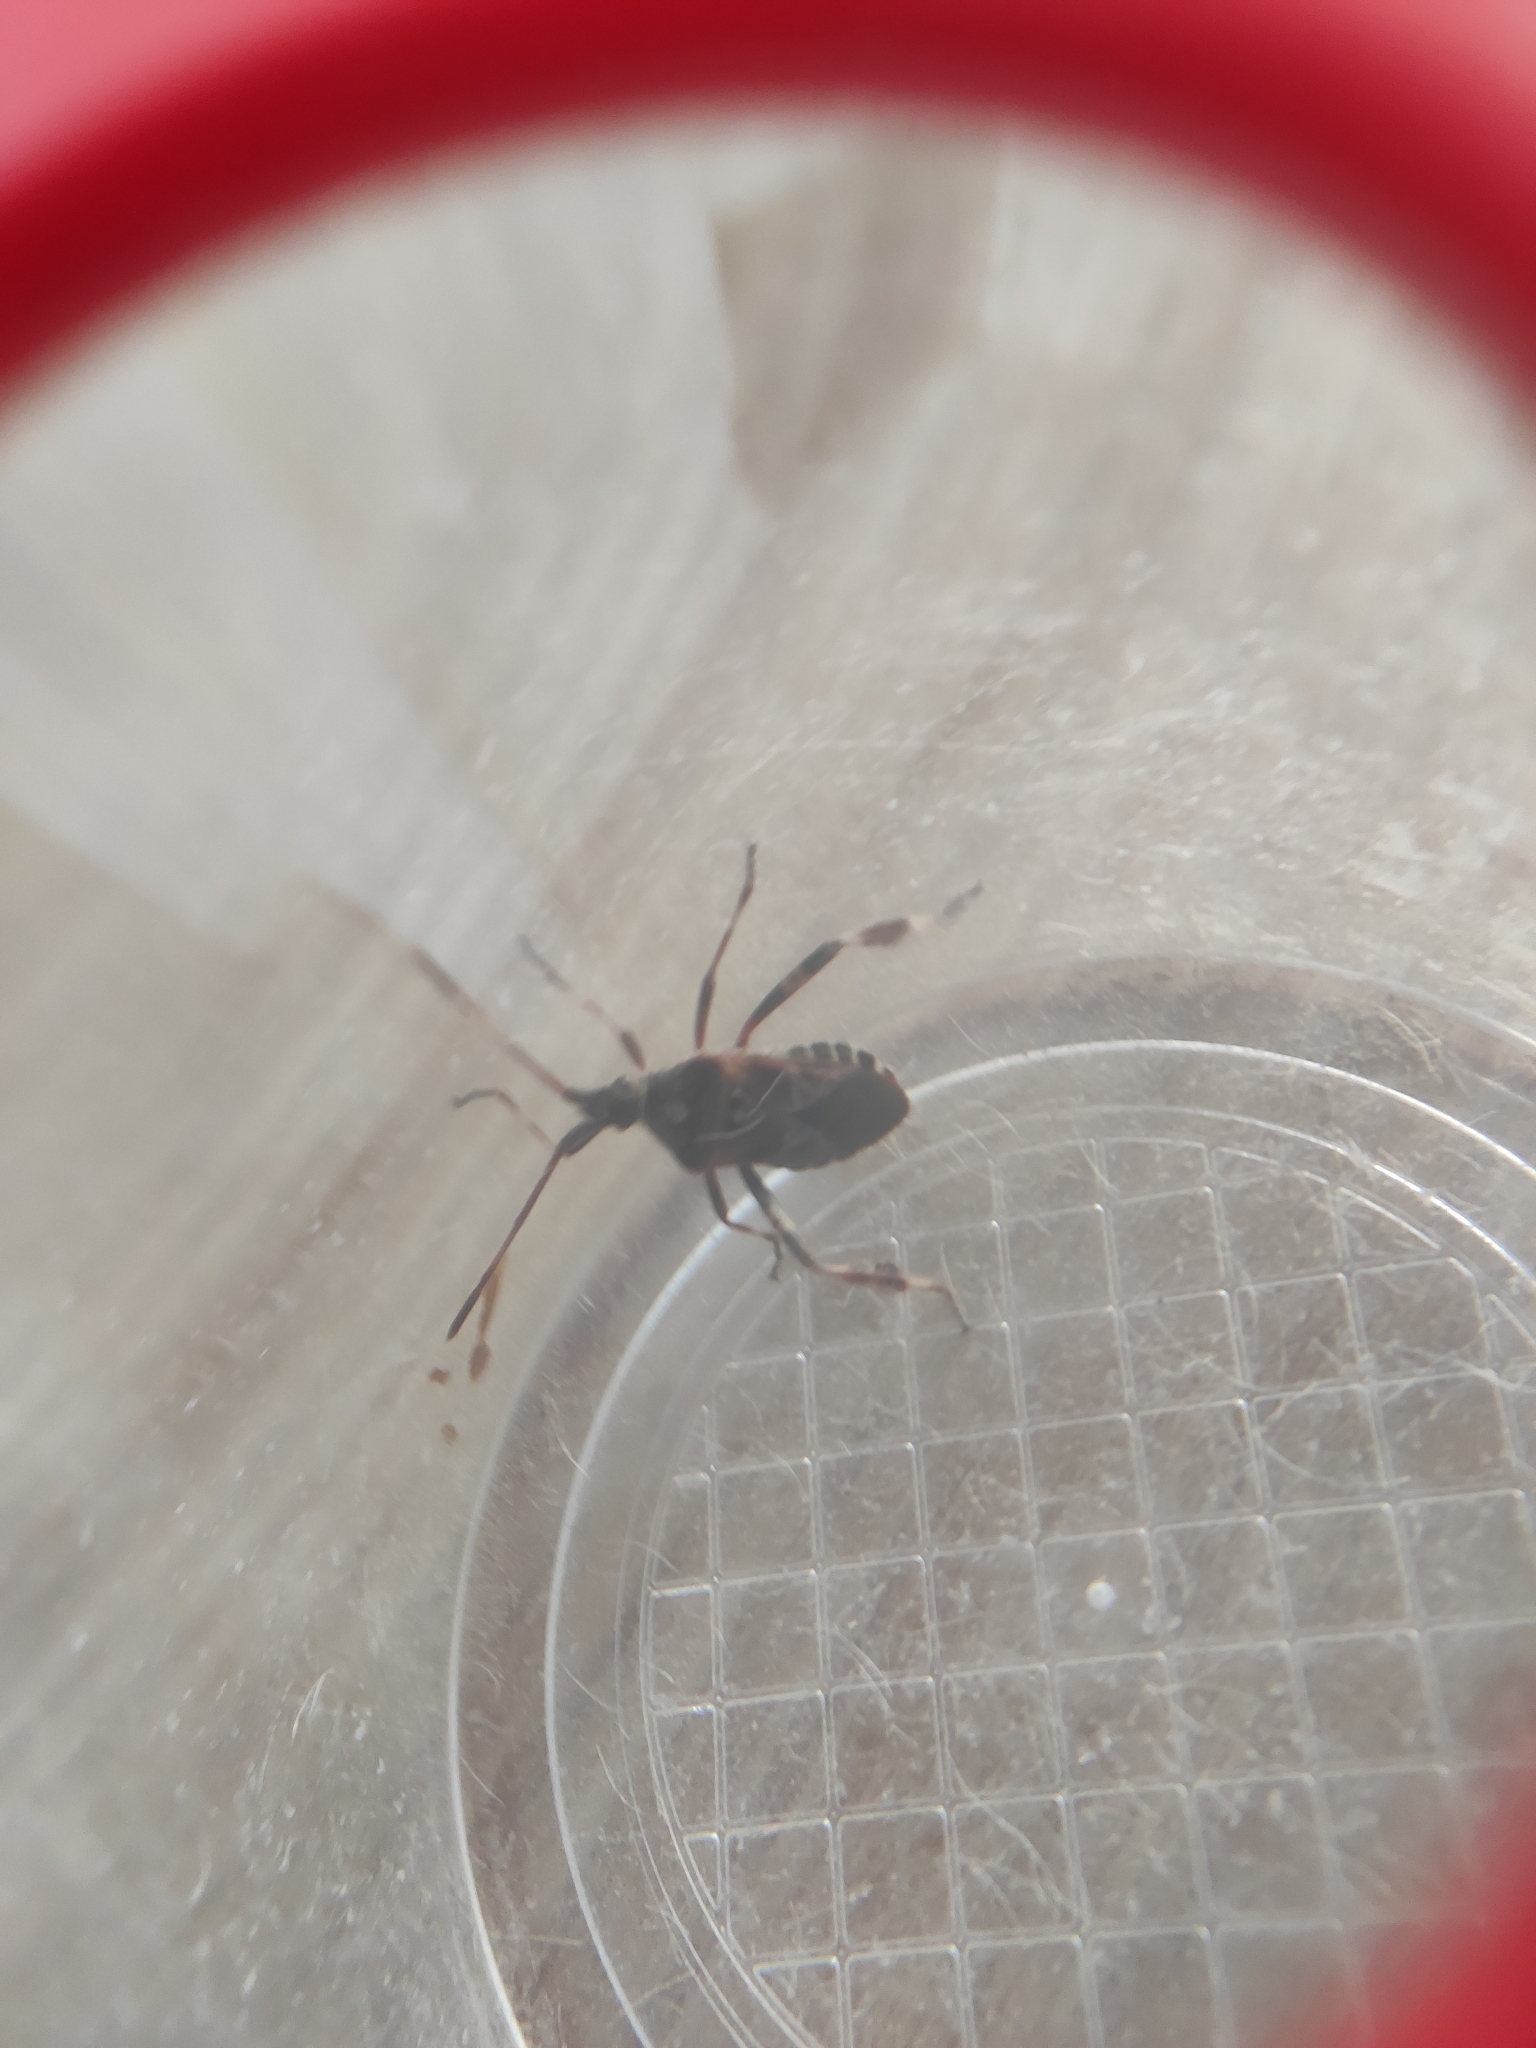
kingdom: Animalia
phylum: Arthropoda
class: Insecta
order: Hemiptera
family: Coreidae
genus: Leptoglossus
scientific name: Leptoglossus occidentalis
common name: Western conifer-seed bug
